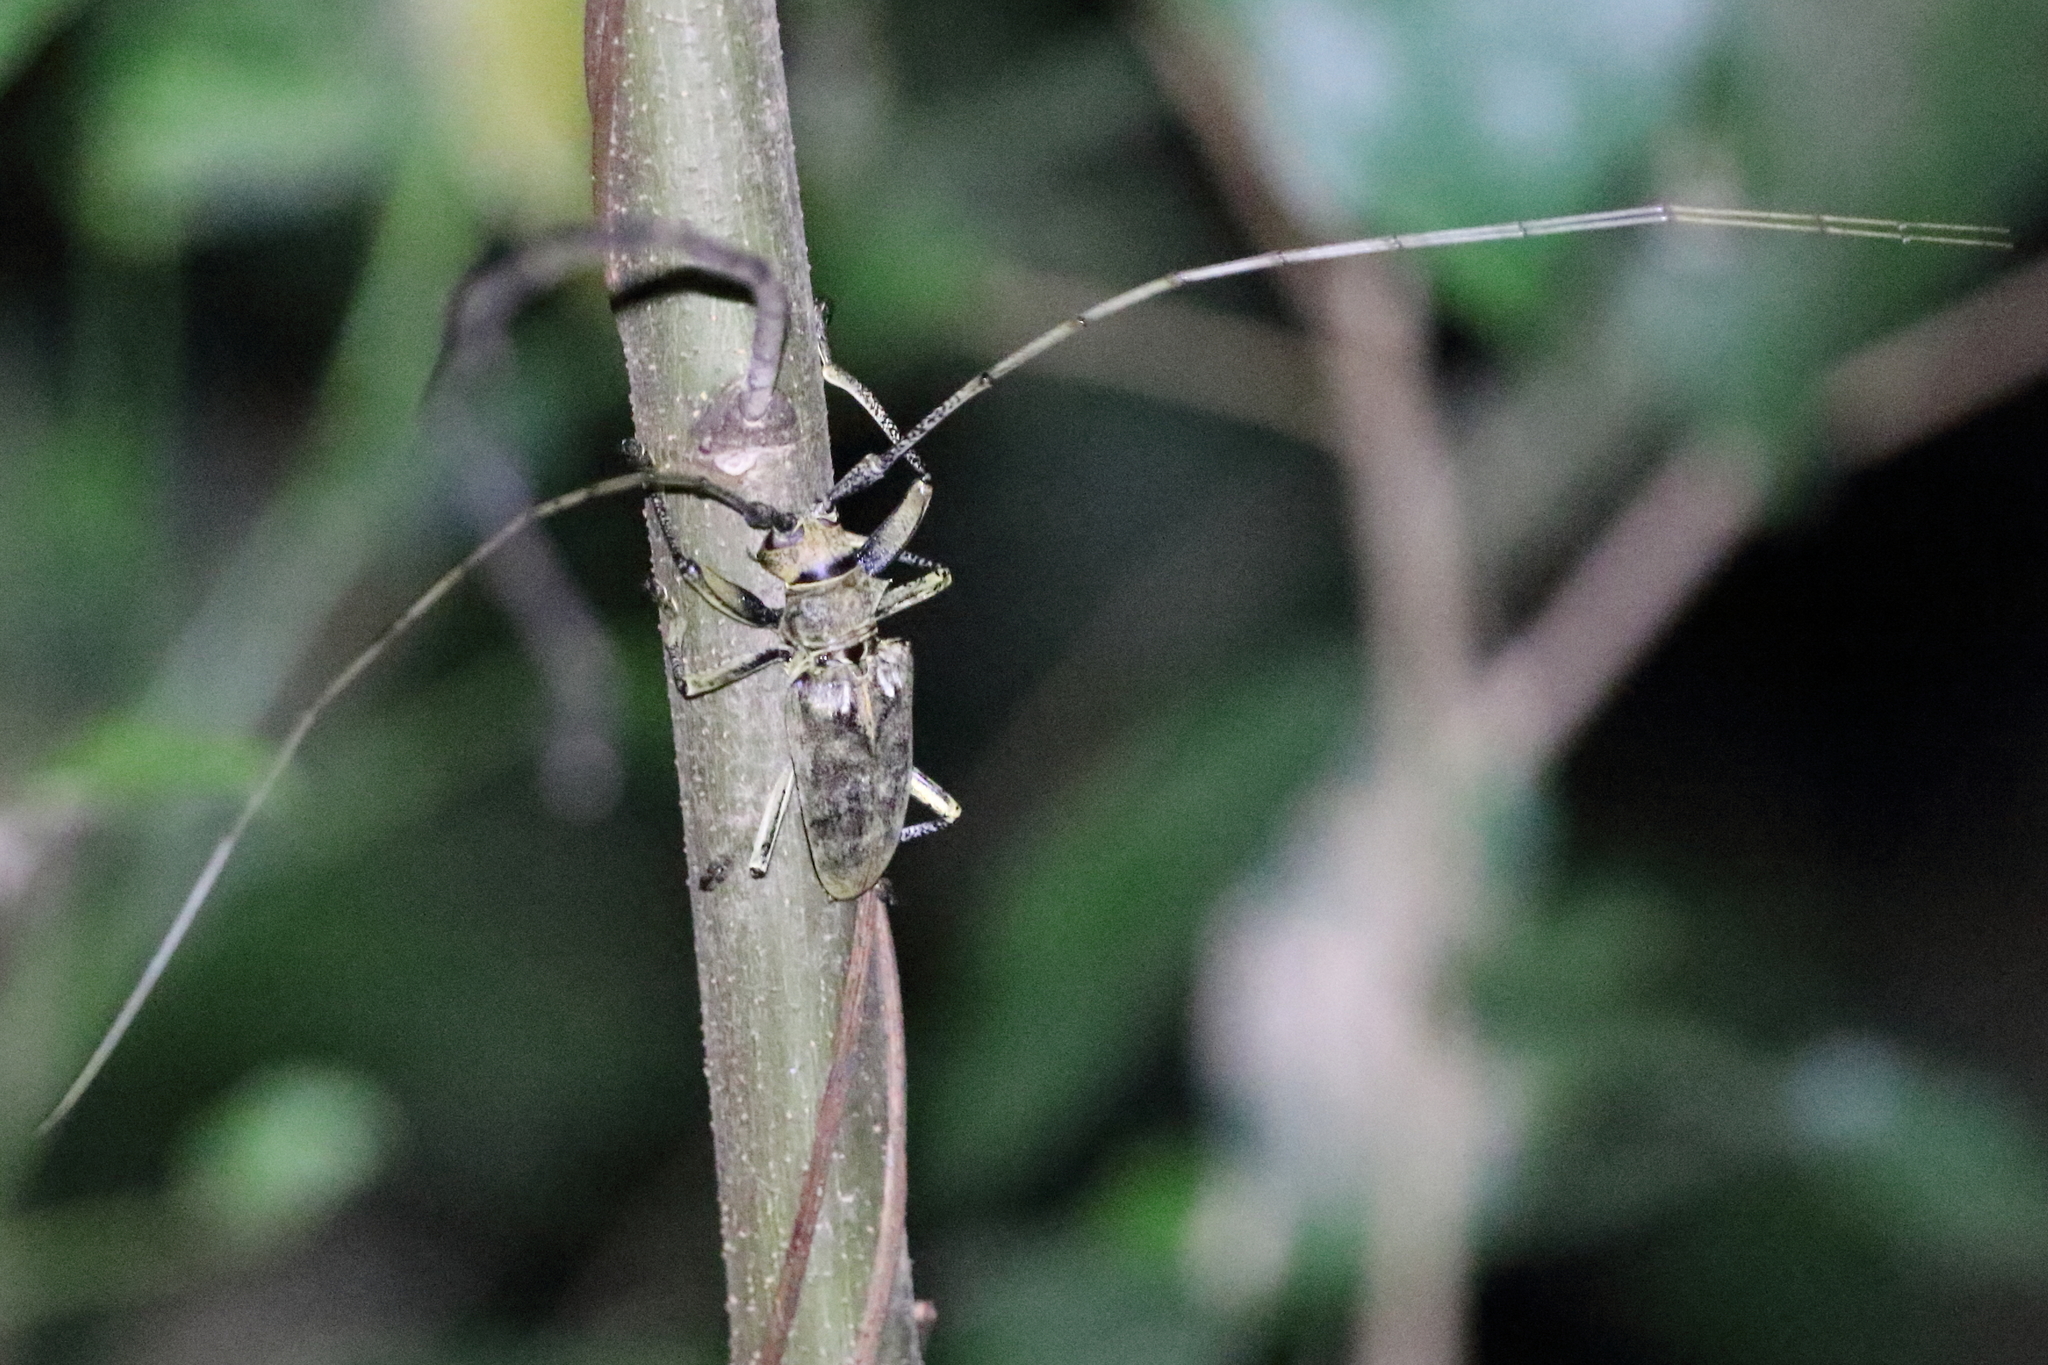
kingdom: Animalia
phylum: Arthropoda
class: Insecta
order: Coleoptera
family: Cerambycidae
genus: Acalolepta
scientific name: Acalolepta longicollis
